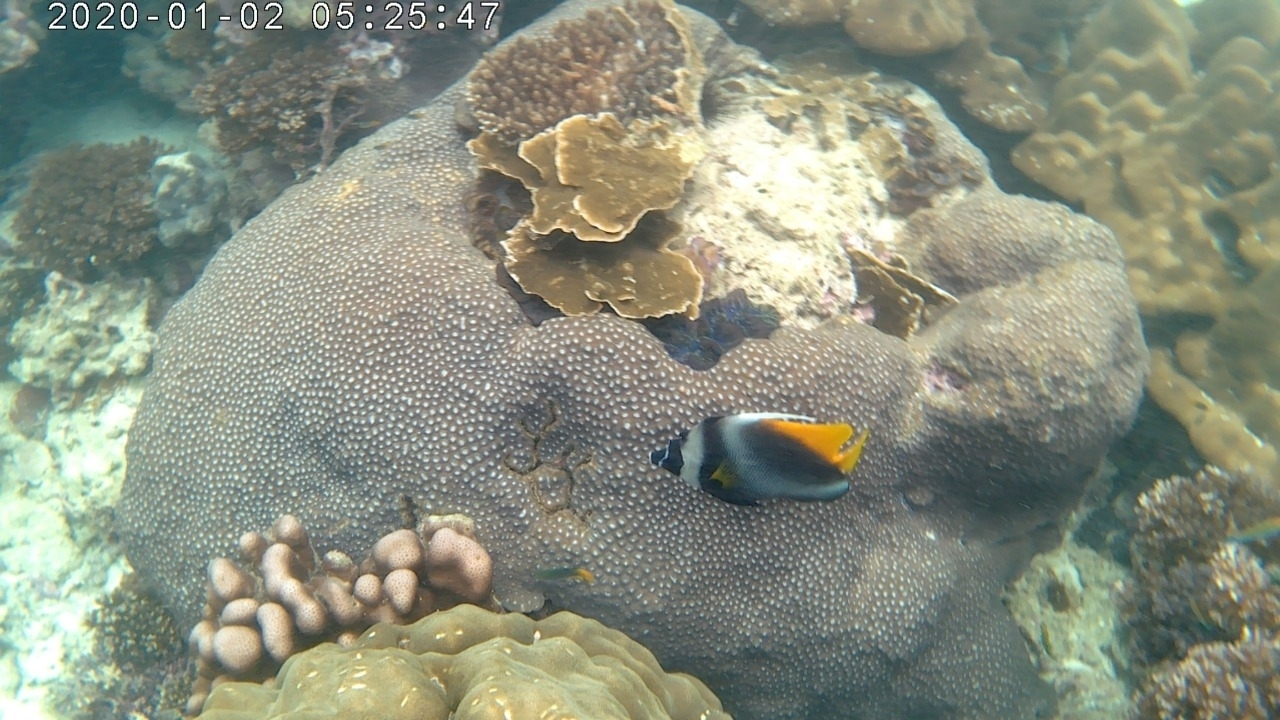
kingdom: Animalia
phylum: Chordata
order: Perciformes
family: Chaetodontidae
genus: Heniochus
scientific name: Heniochus singularius
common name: Singular bannerfish
